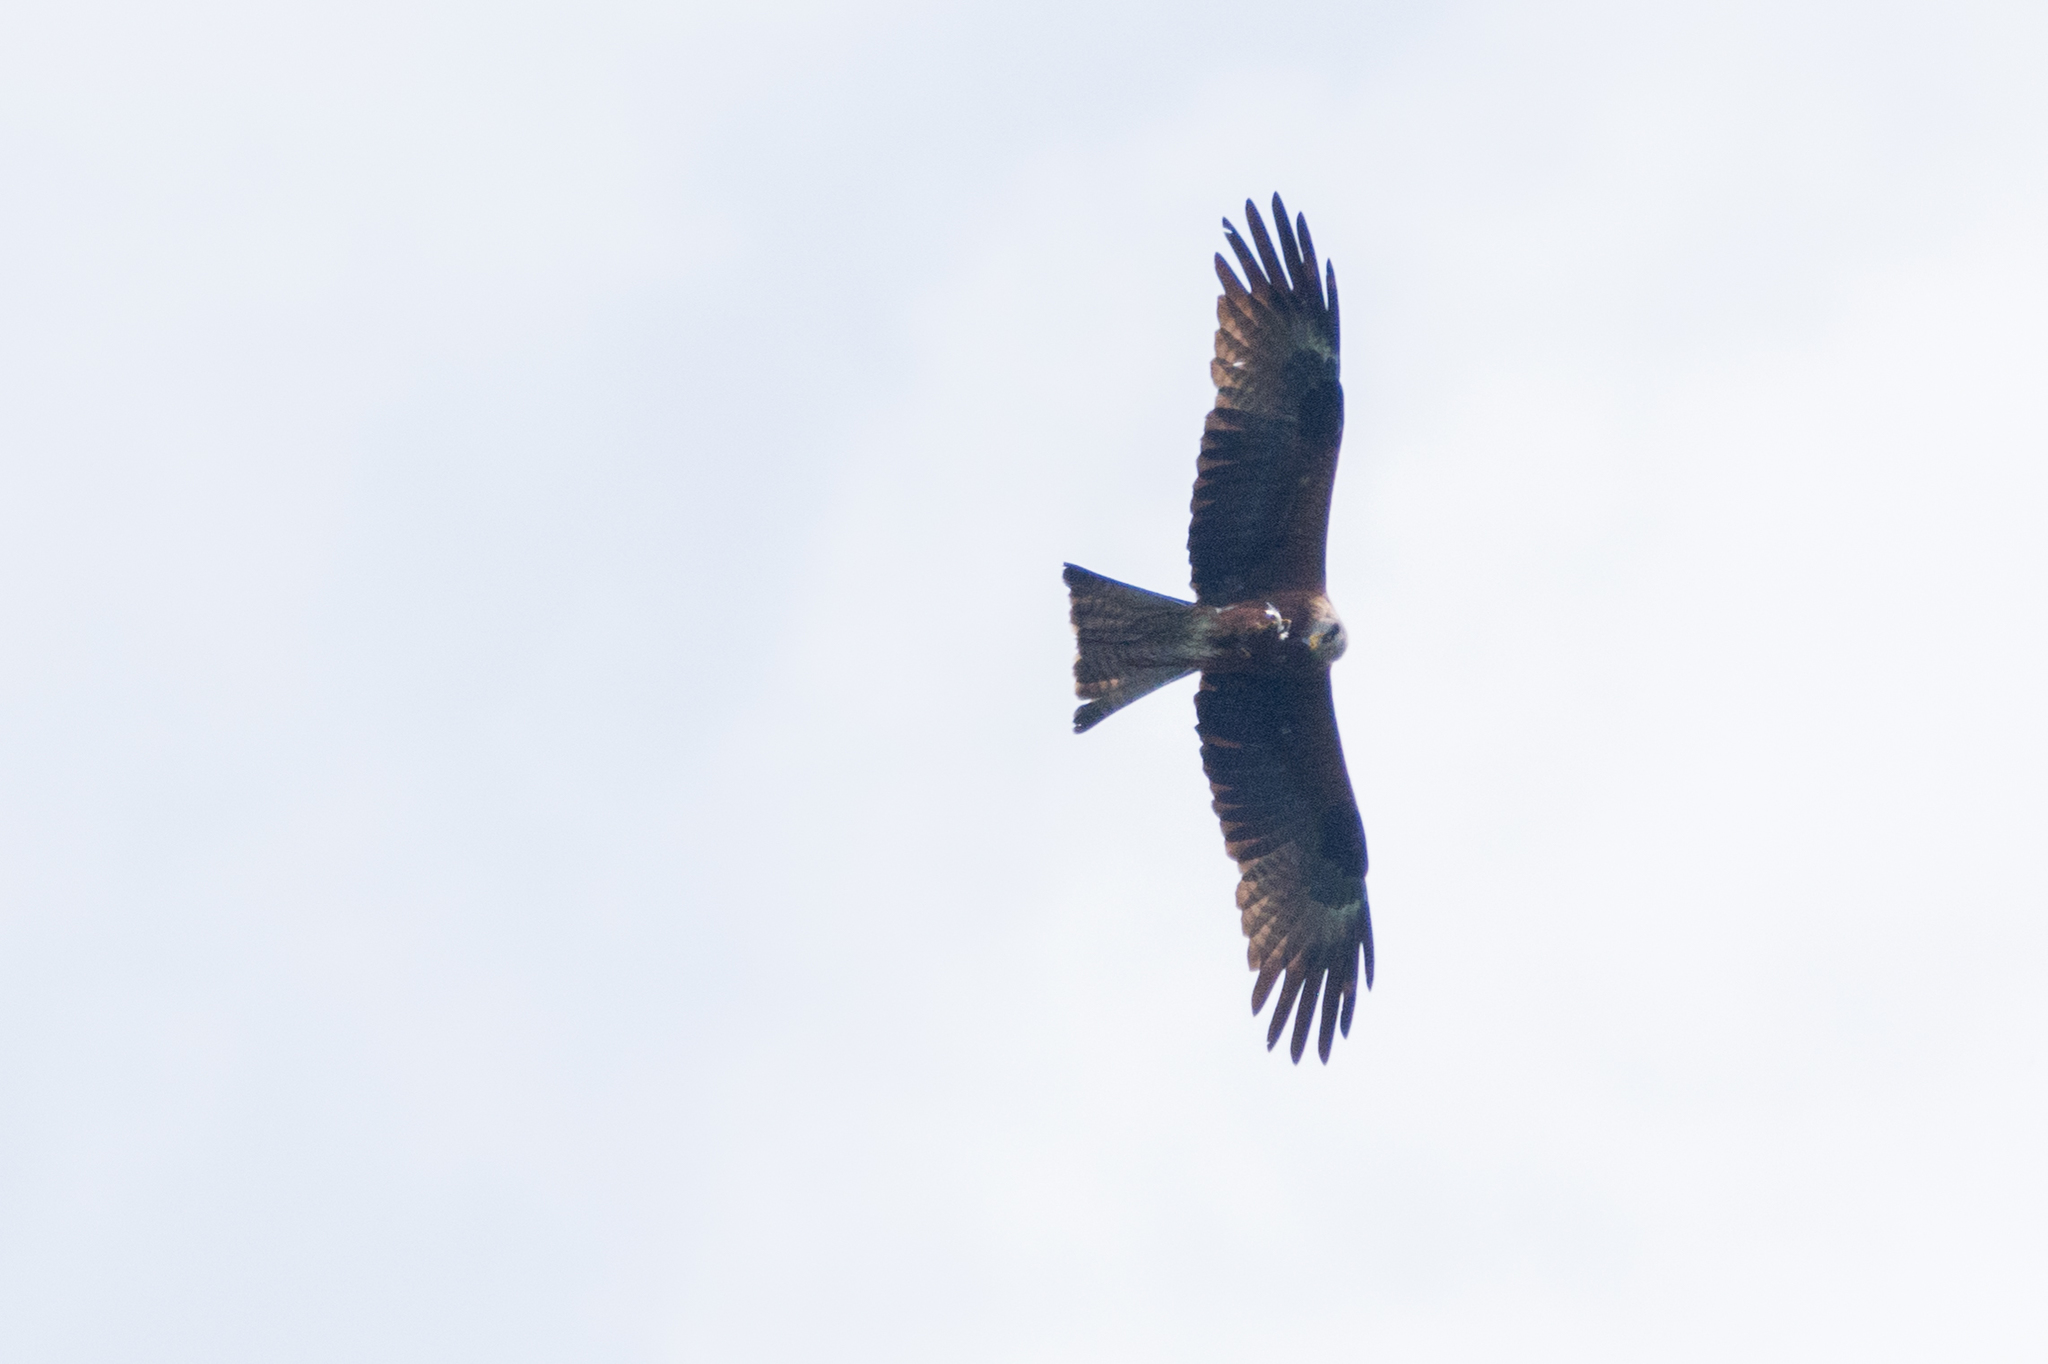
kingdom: Animalia
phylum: Chordata
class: Aves
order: Accipitriformes
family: Accipitridae
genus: Milvus
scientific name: Milvus migrans
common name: Black kite
